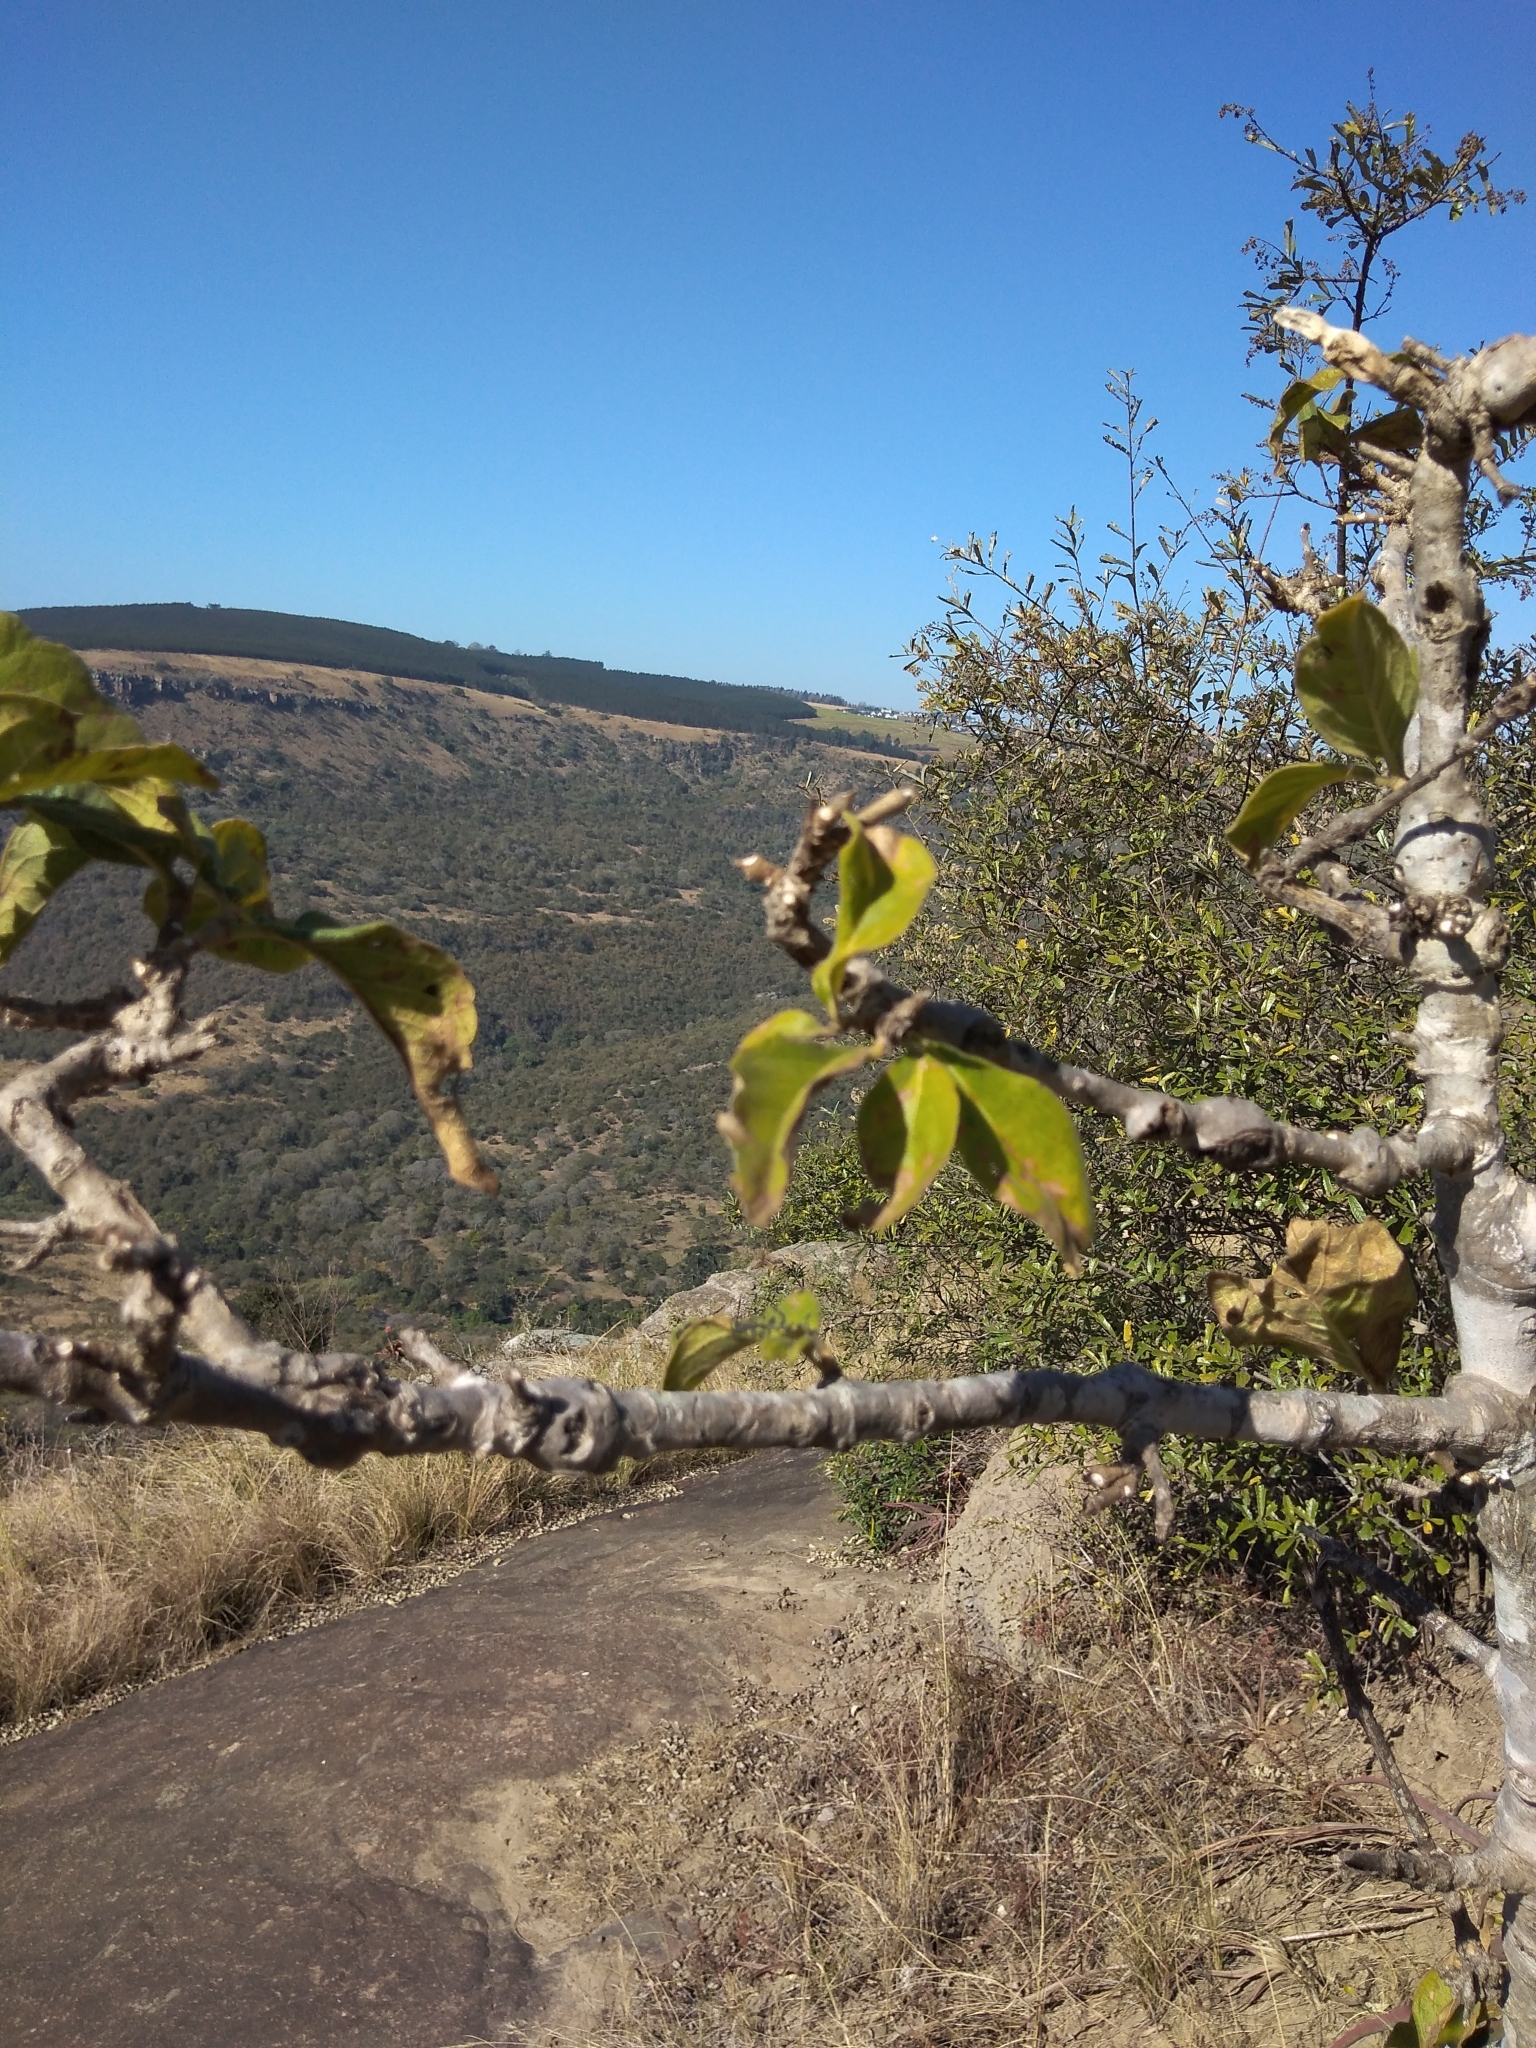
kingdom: Plantae
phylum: Tracheophyta
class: Magnoliopsida
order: Gentianales
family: Rubiaceae
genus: Vangueria
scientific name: Vangueria infausta
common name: Medlar
